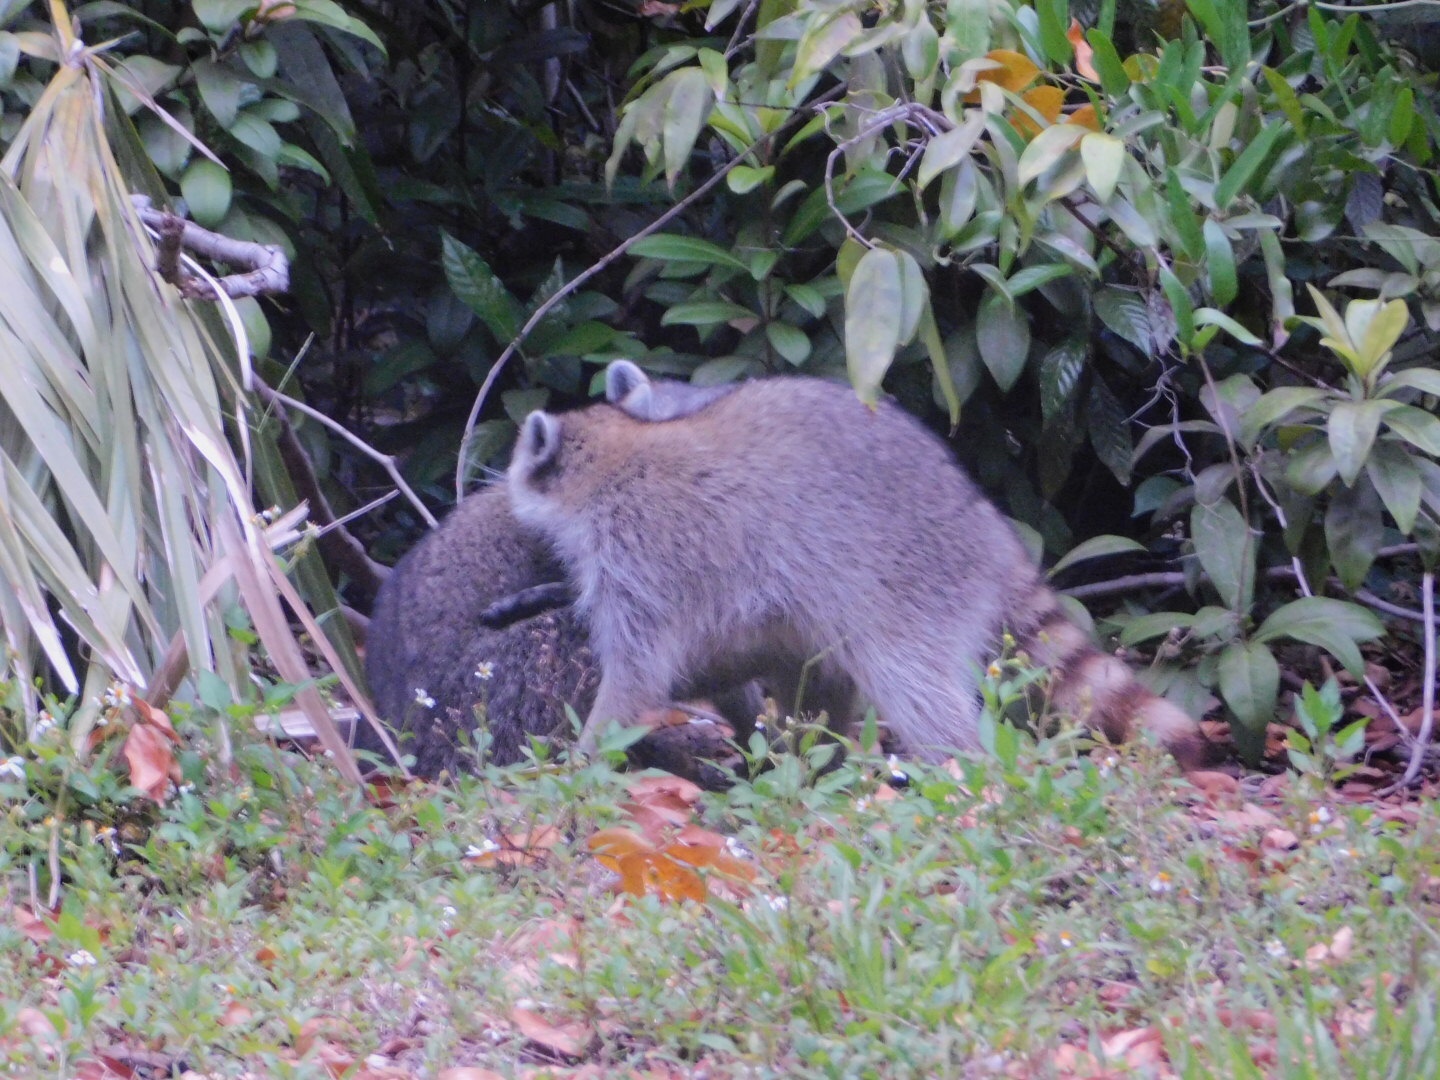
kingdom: Animalia
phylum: Chordata
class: Mammalia
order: Carnivora
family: Procyonidae
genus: Procyon
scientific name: Procyon lotor
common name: Raccoon
